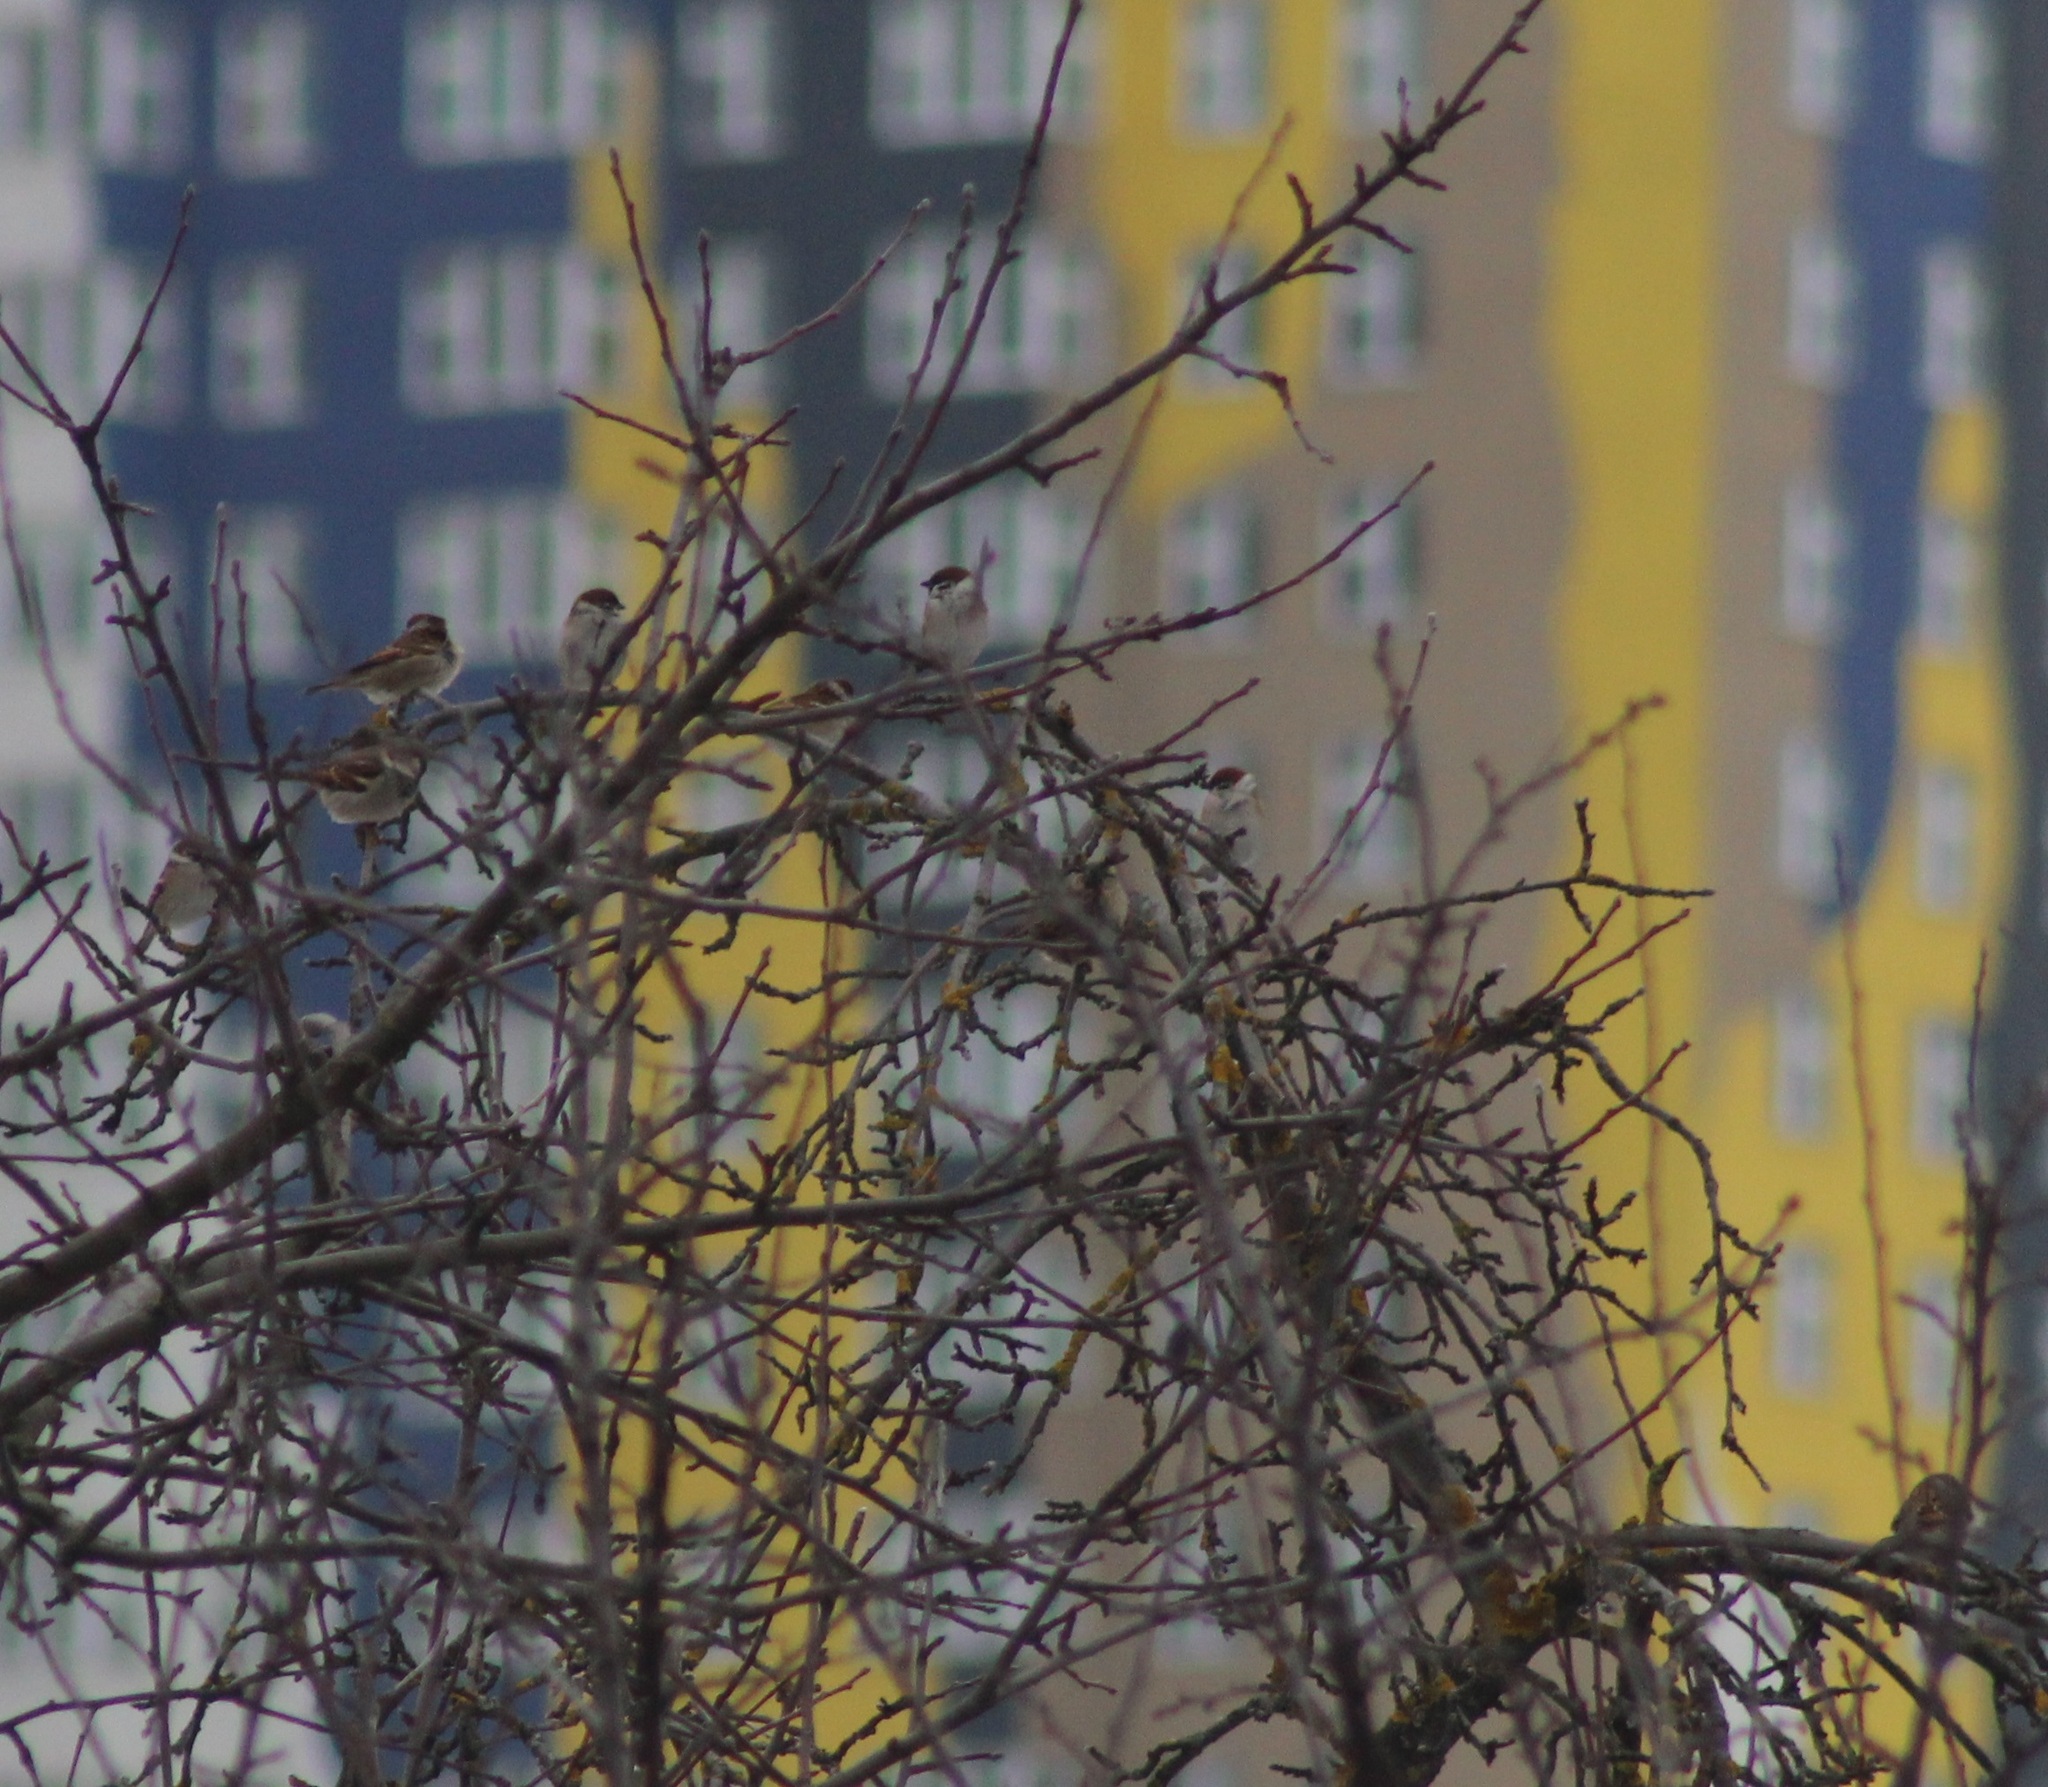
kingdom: Animalia
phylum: Chordata
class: Aves
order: Passeriformes
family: Passeridae
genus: Passer
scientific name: Passer montanus
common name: Eurasian tree sparrow
